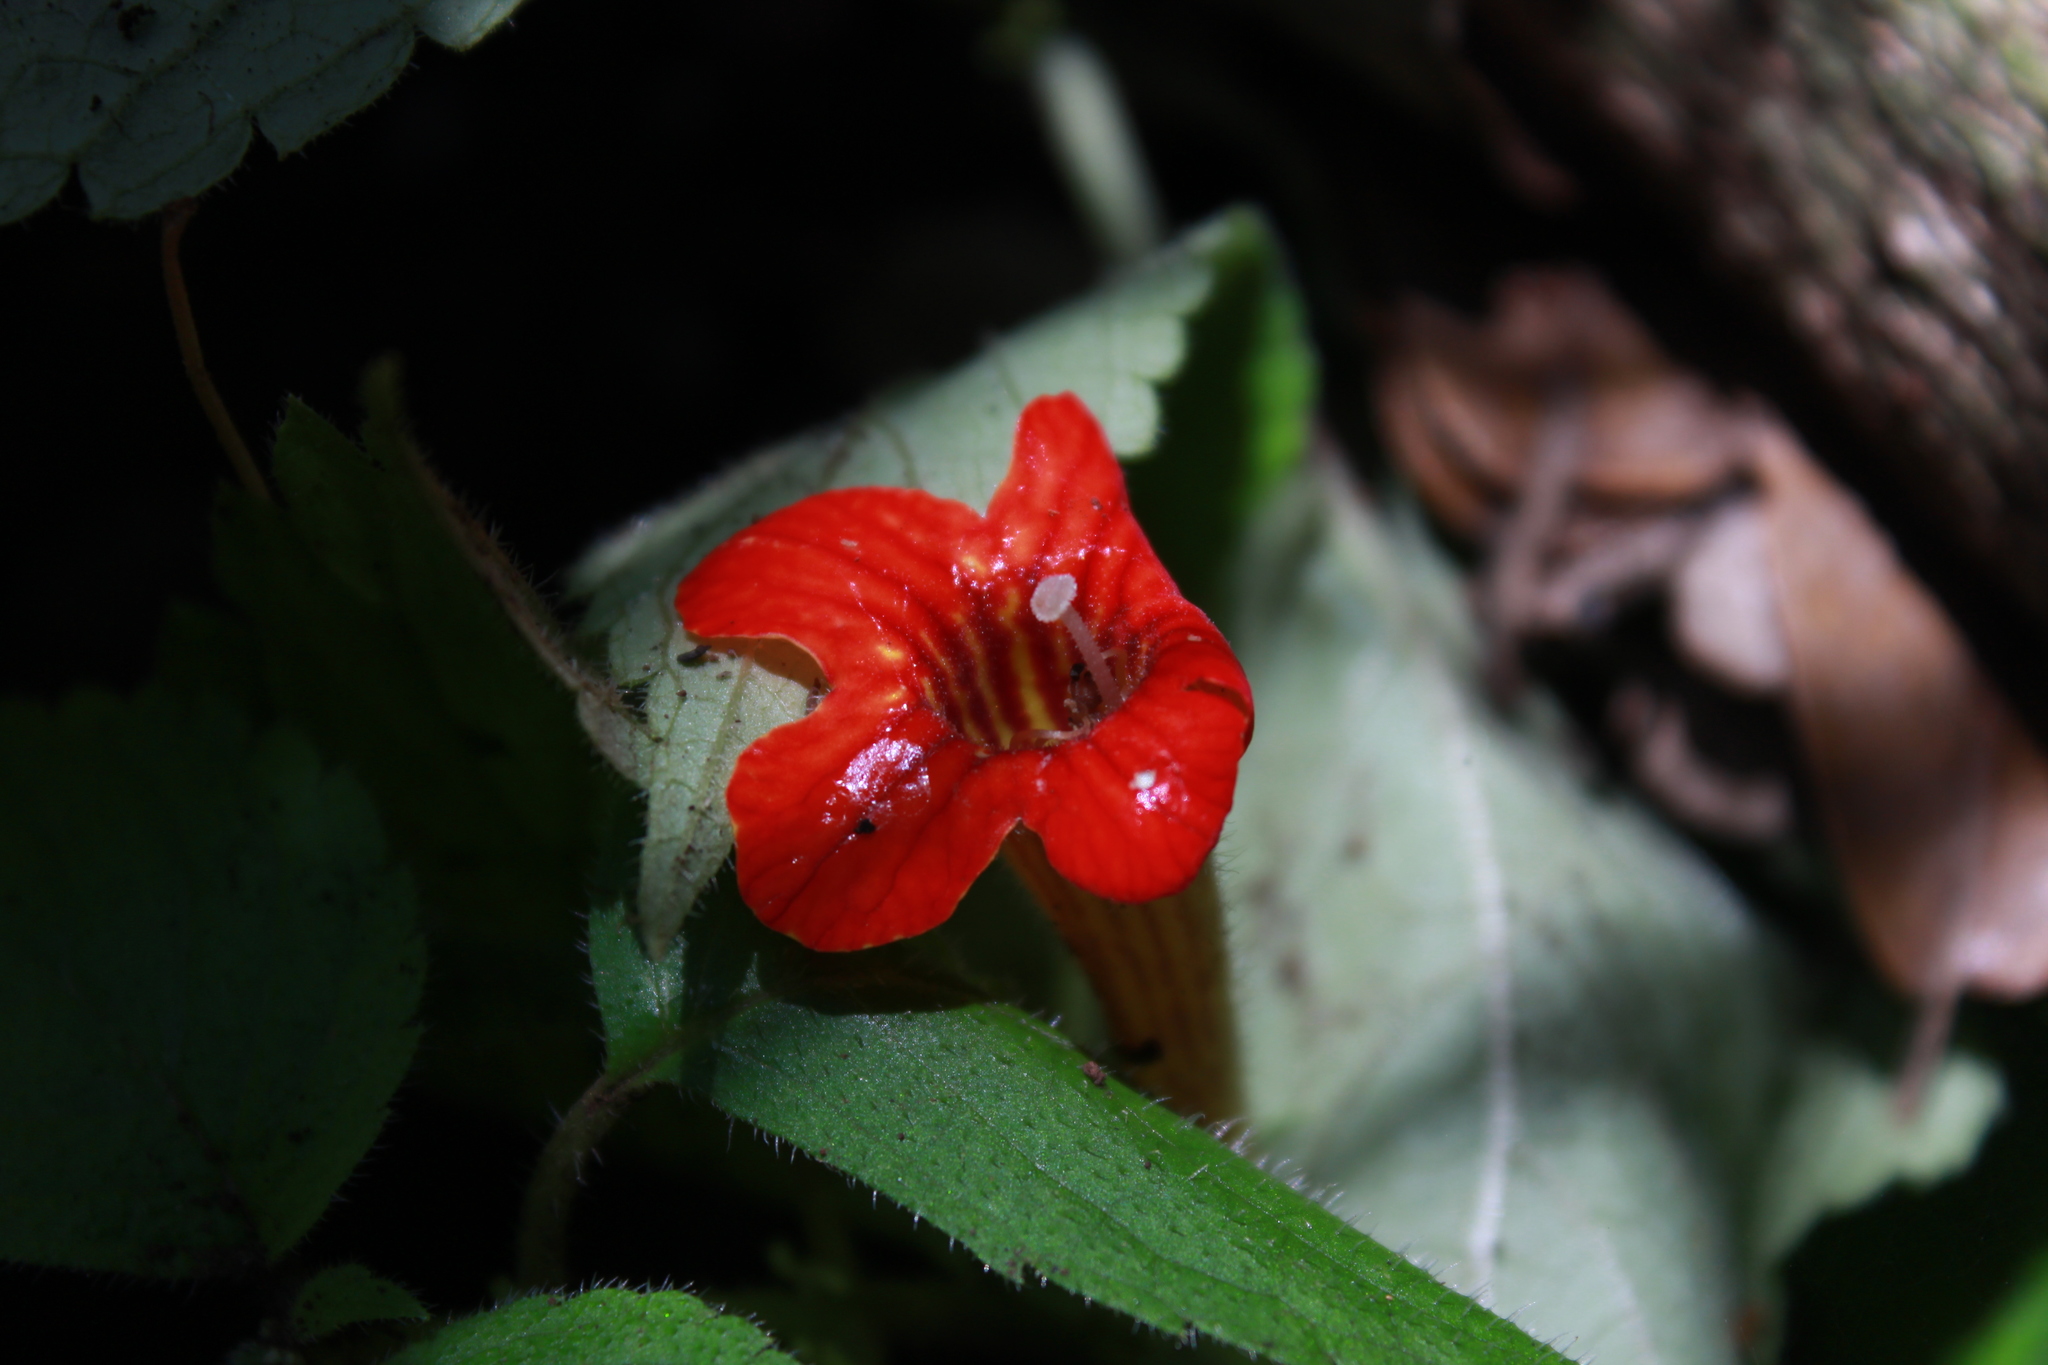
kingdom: Plantae
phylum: Tracheophyta
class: Magnoliopsida
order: Lamiales
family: Gesneriaceae
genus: Achimenes
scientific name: Achimenes antirrhina
